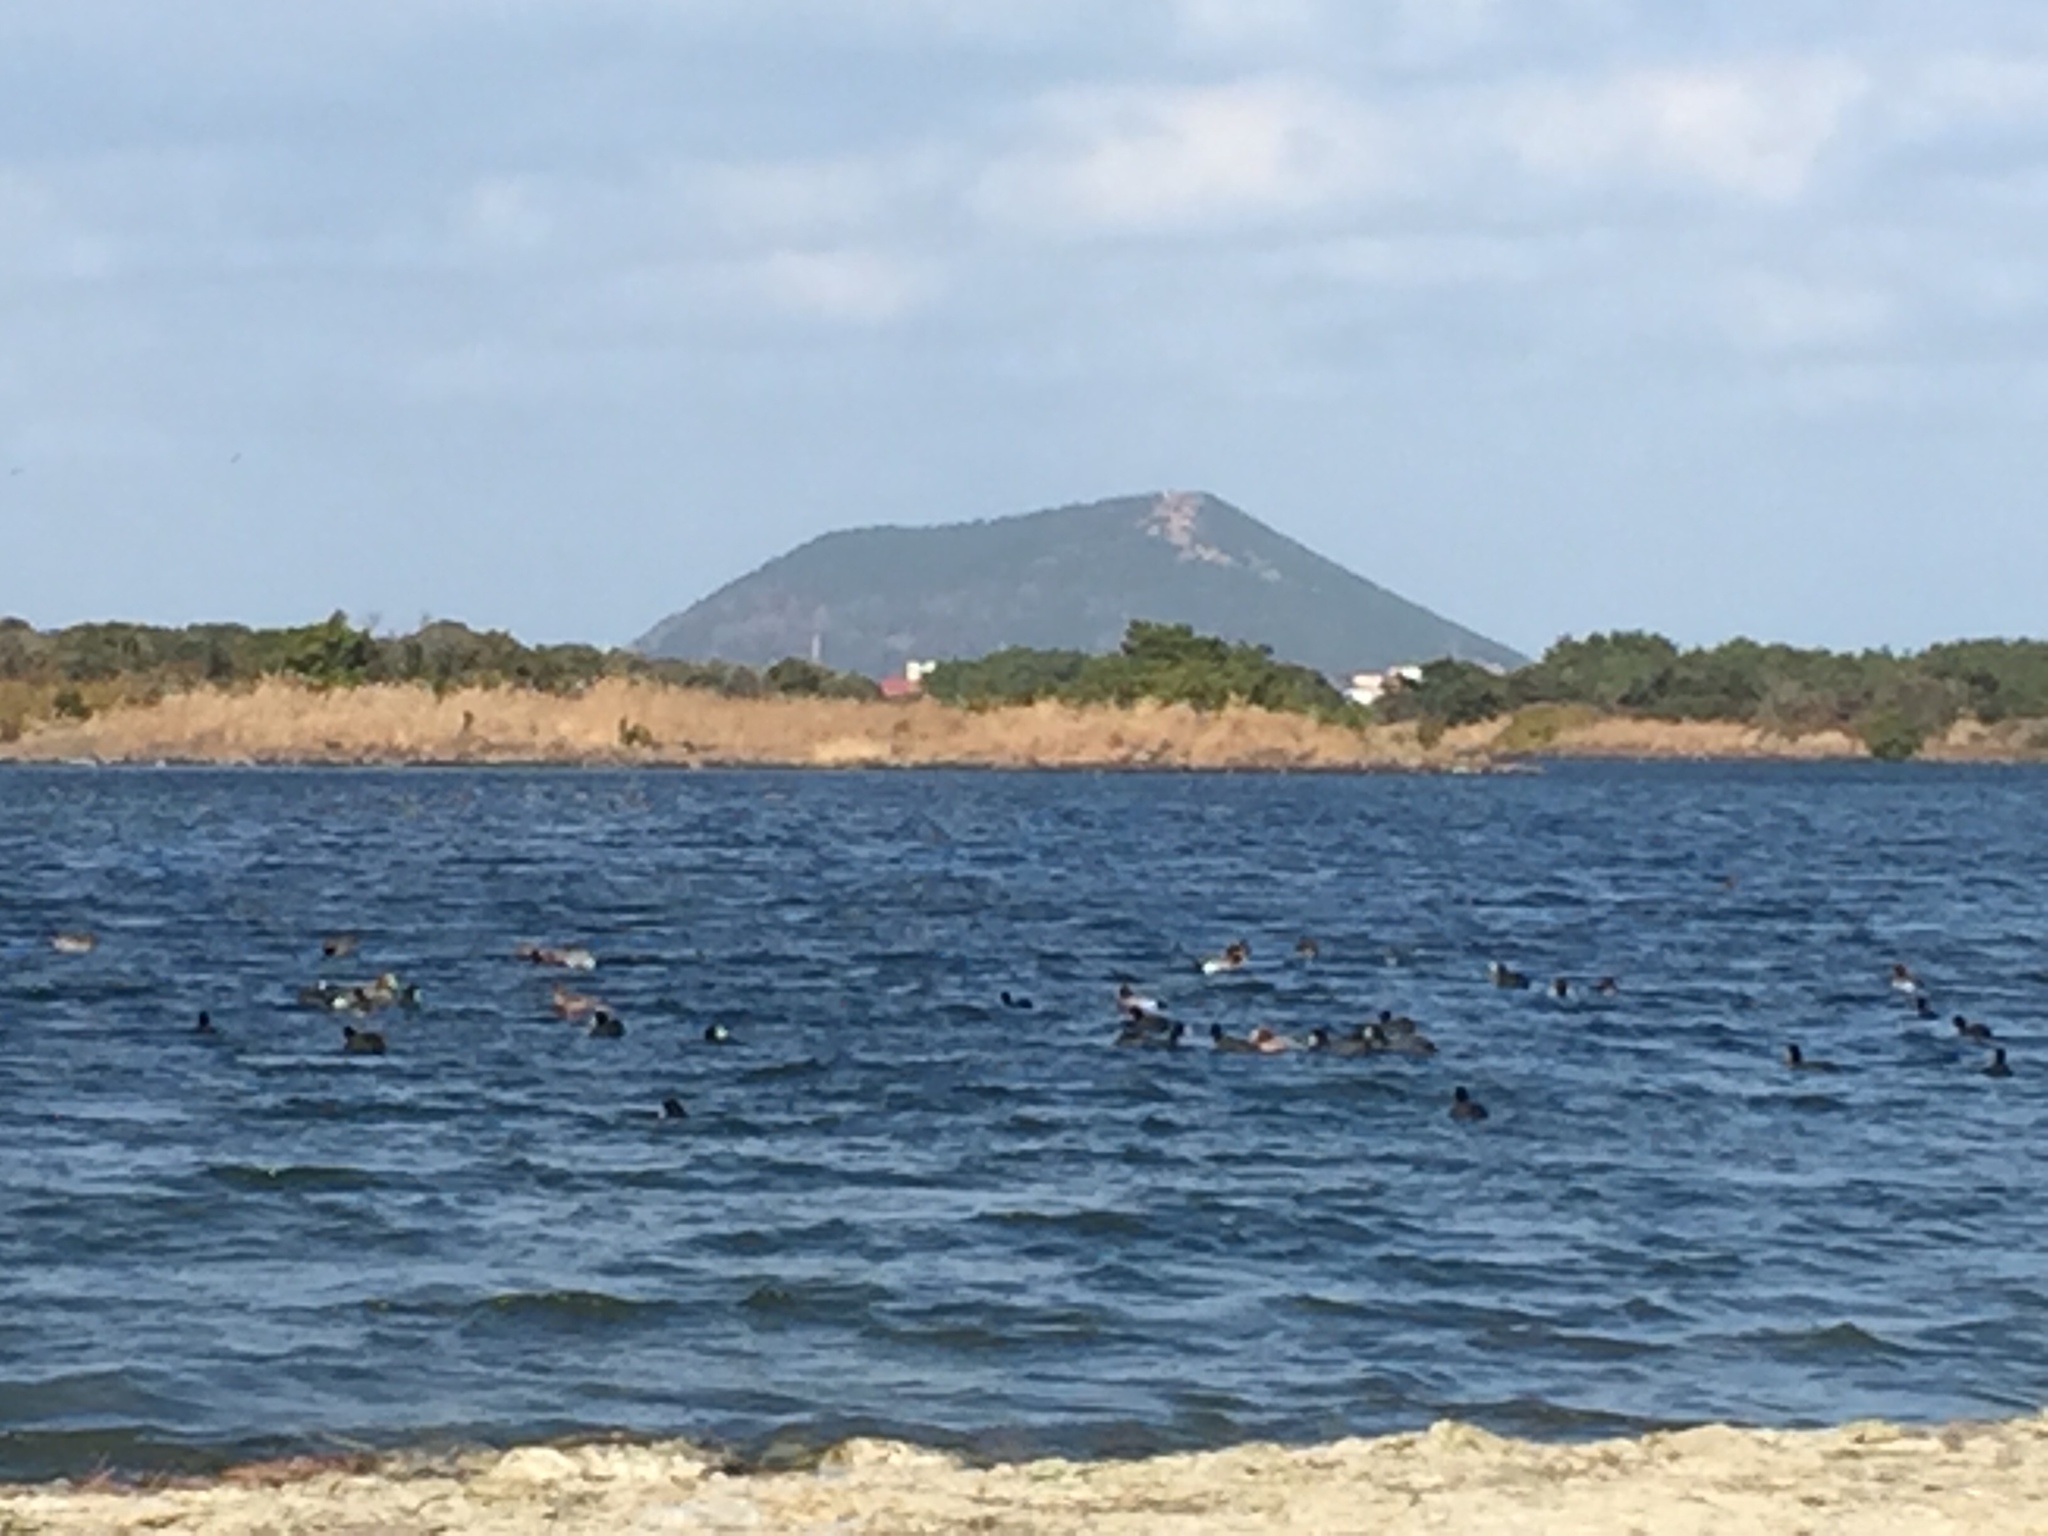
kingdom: Animalia
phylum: Chordata
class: Aves
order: Gruiformes
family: Rallidae
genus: Fulica
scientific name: Fulica atra
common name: Eurasian coot
